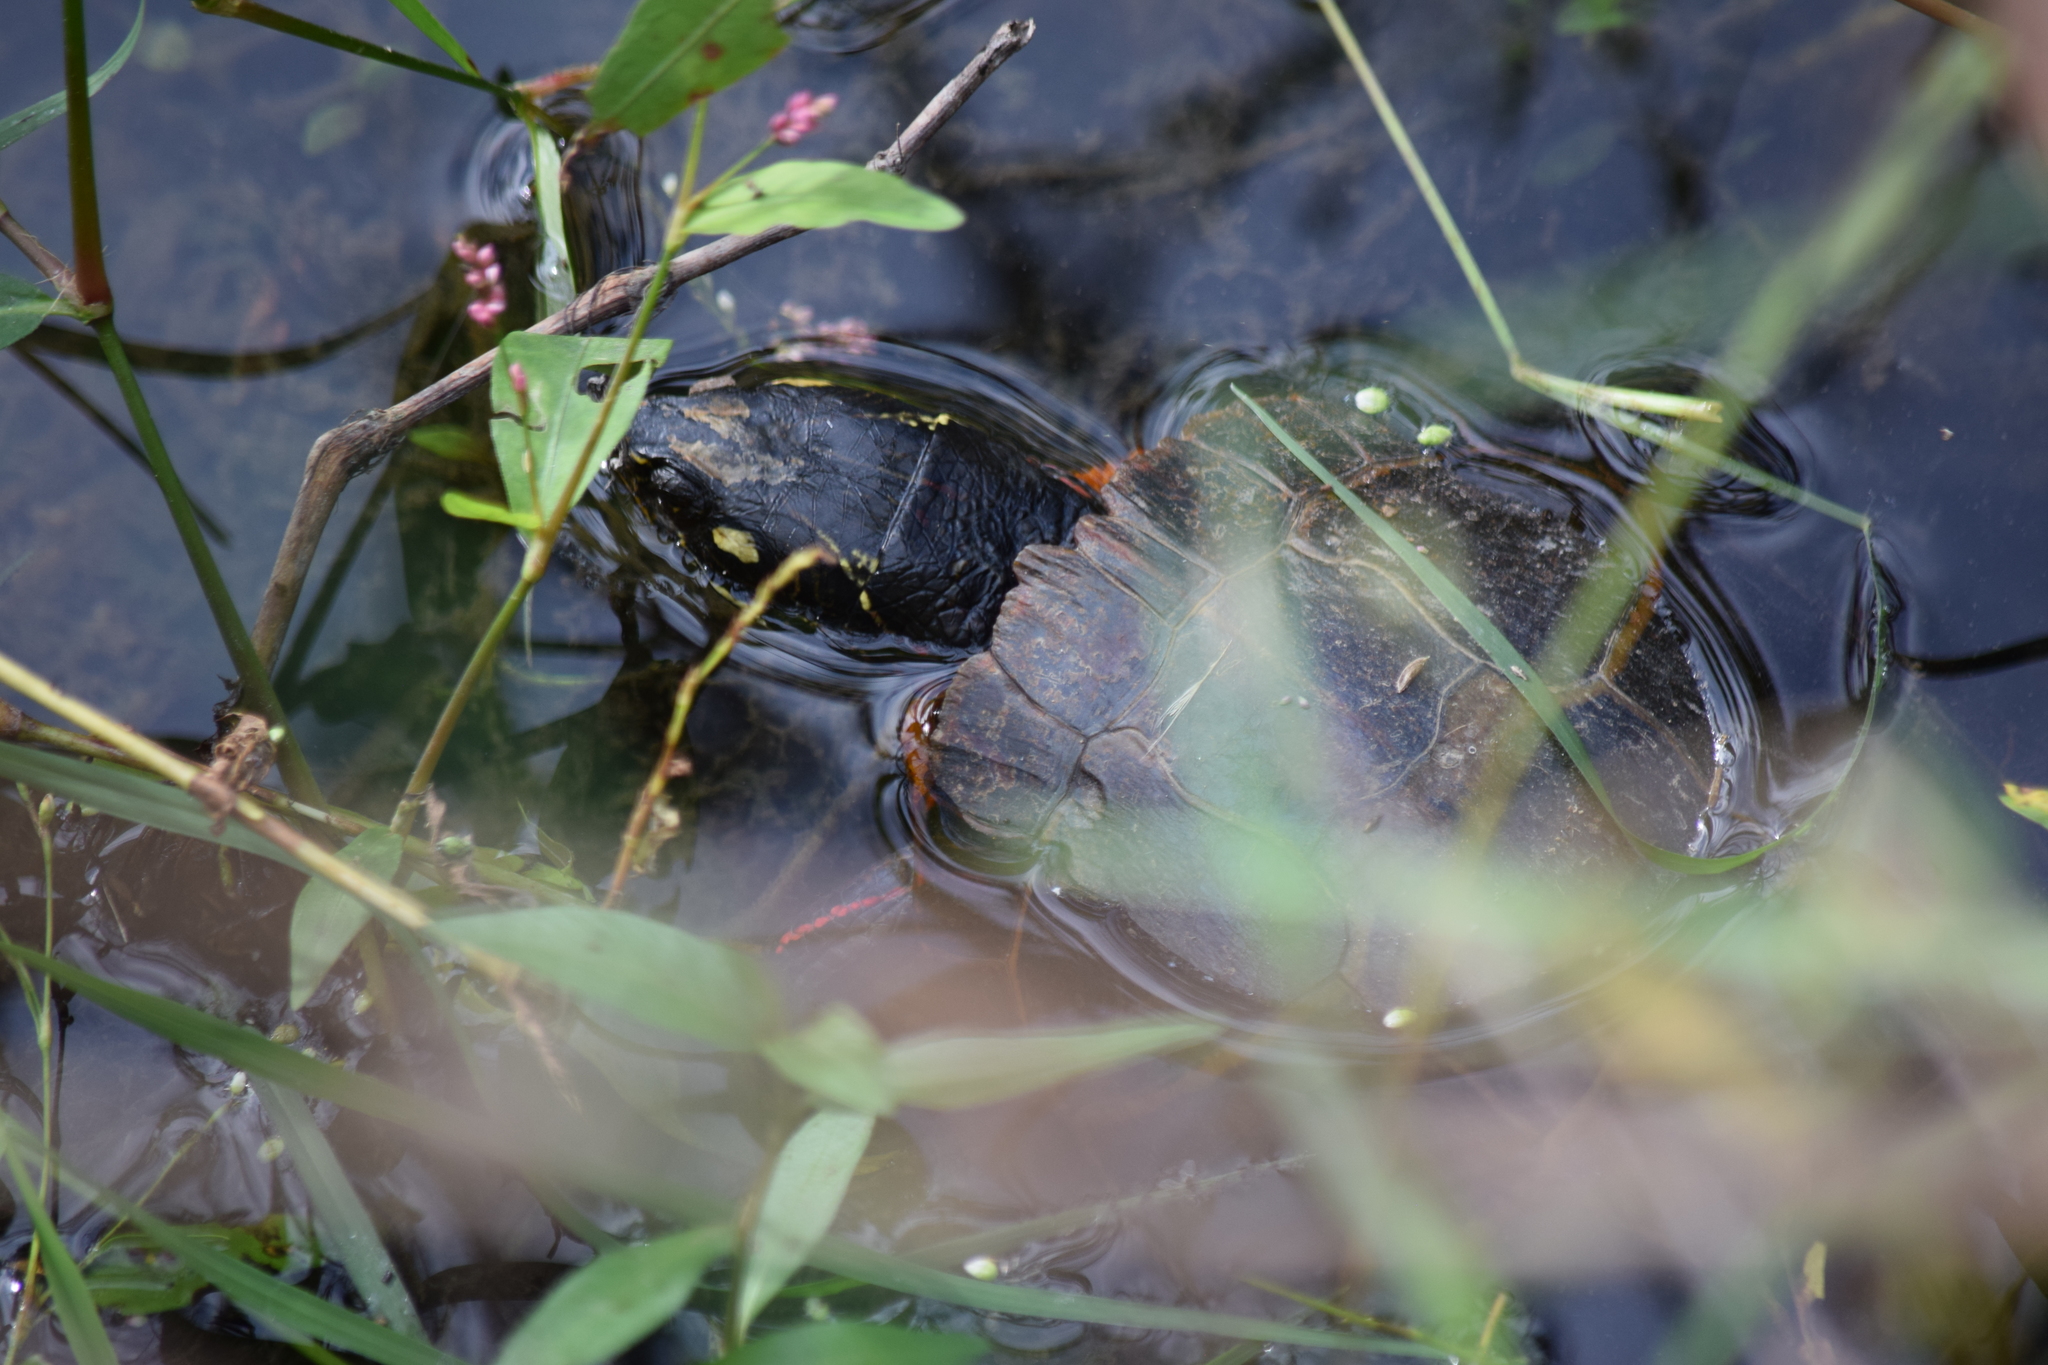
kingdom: Animalia
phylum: Chordata
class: Testudines
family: Emydidae
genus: Chrysemys
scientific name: Chrysemys picta
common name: Painted turtle
